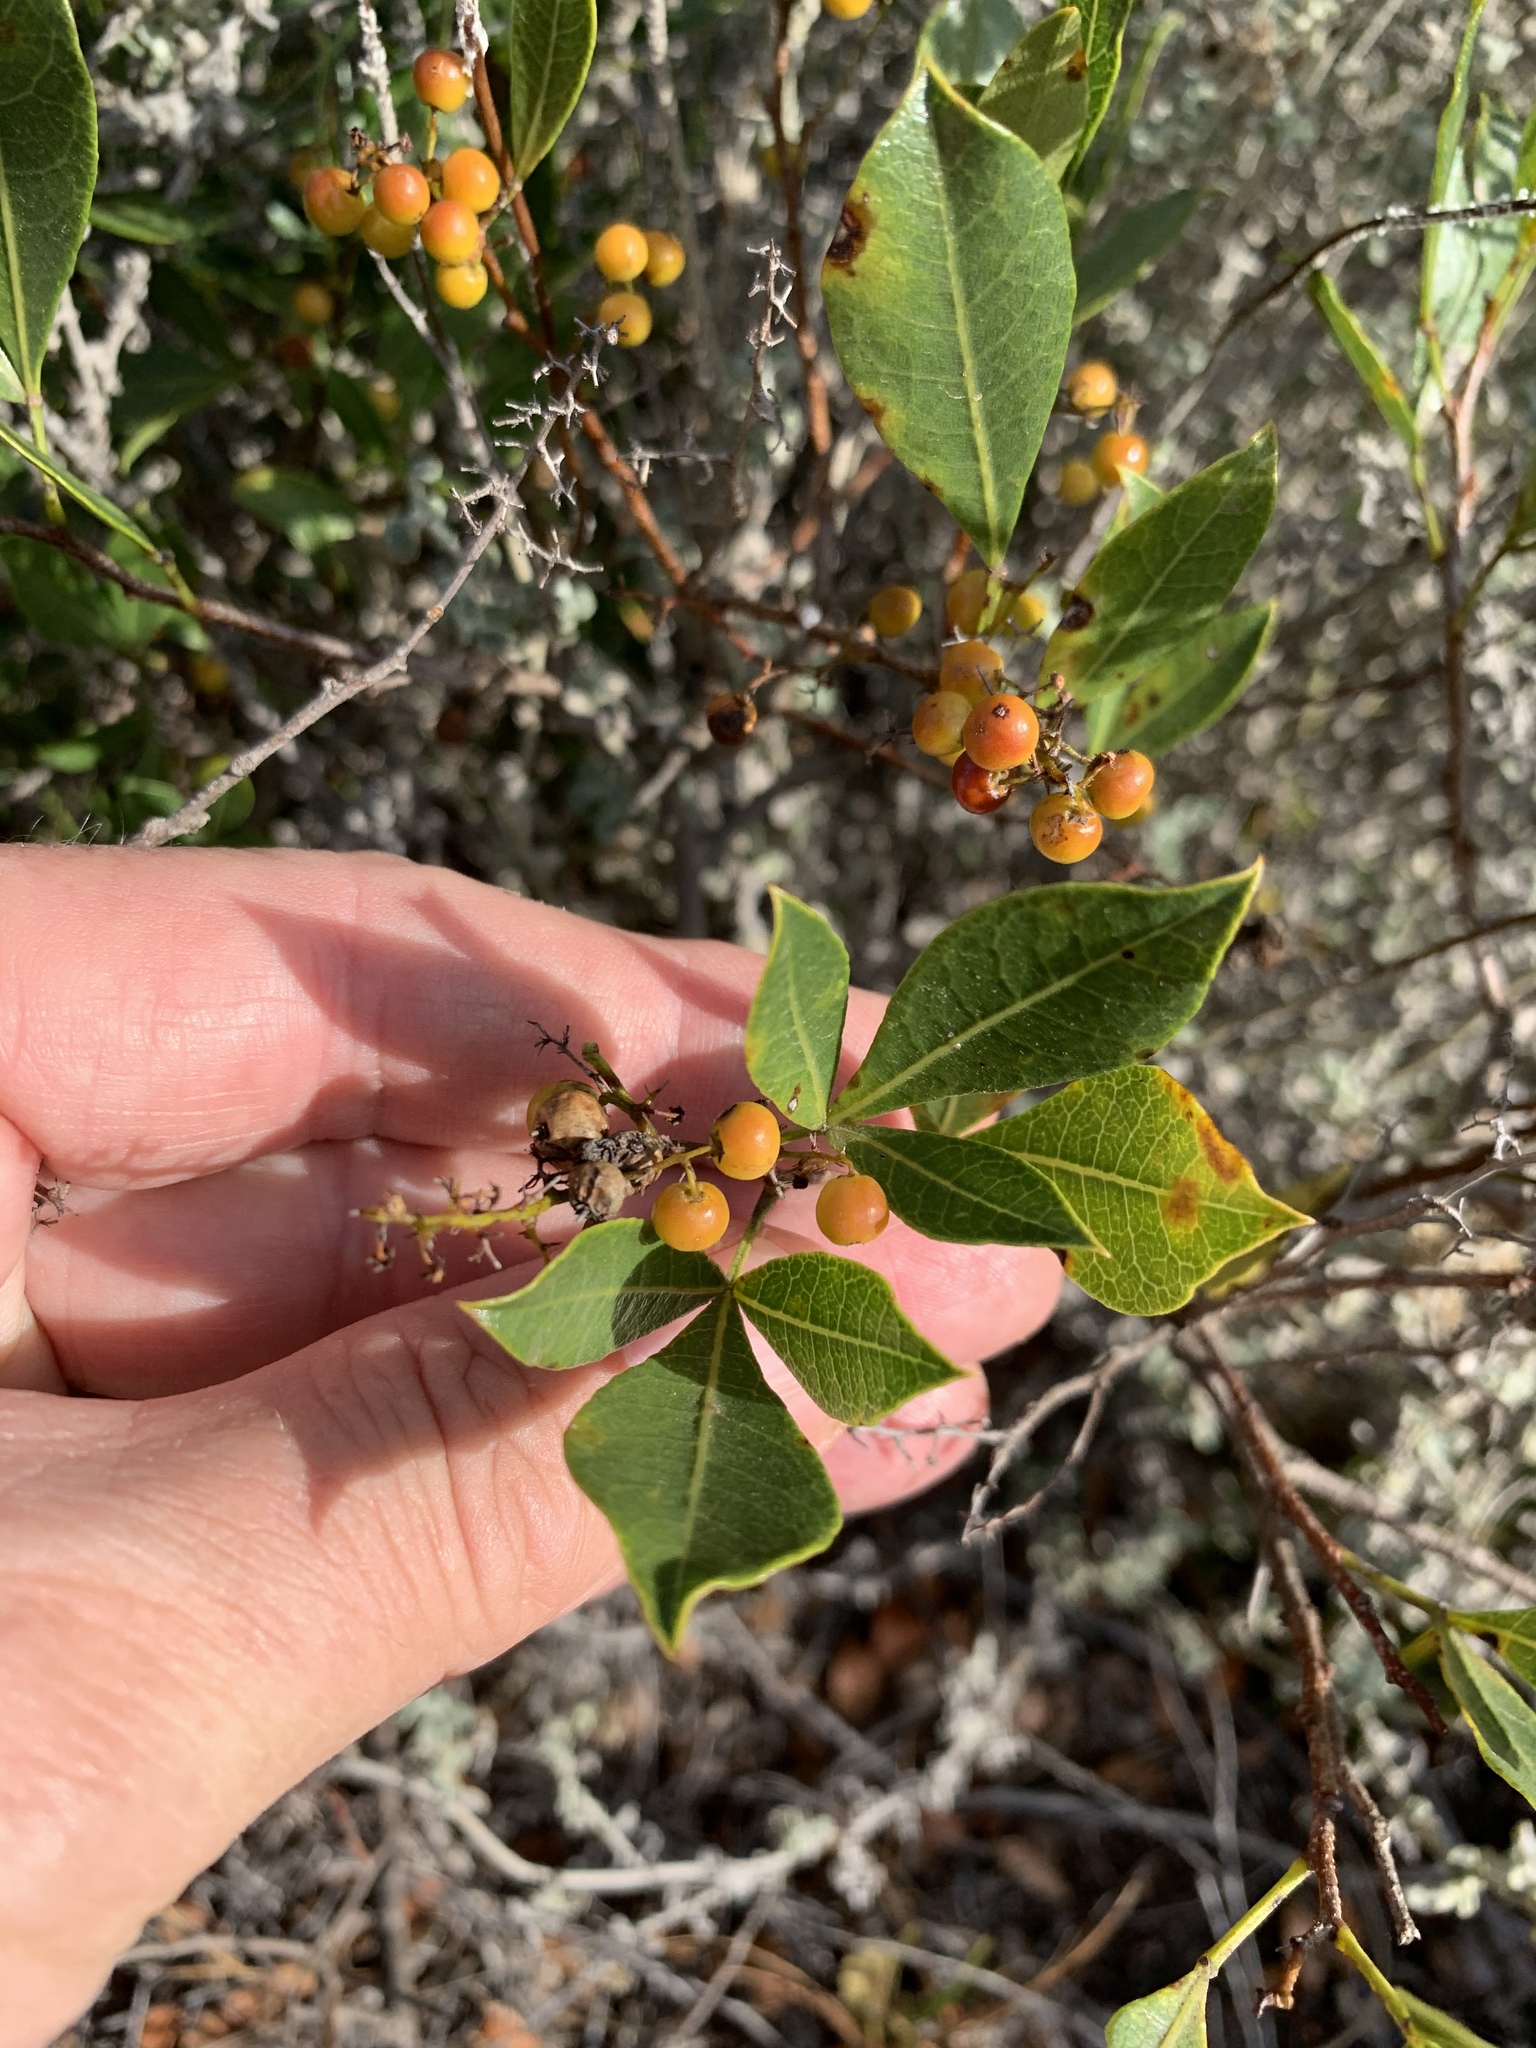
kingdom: Plantae
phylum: Tracheophyta
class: Magnoliopsida
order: Sapindales
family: Anacardiaceae
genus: Searsia
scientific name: Searsia laevigata
